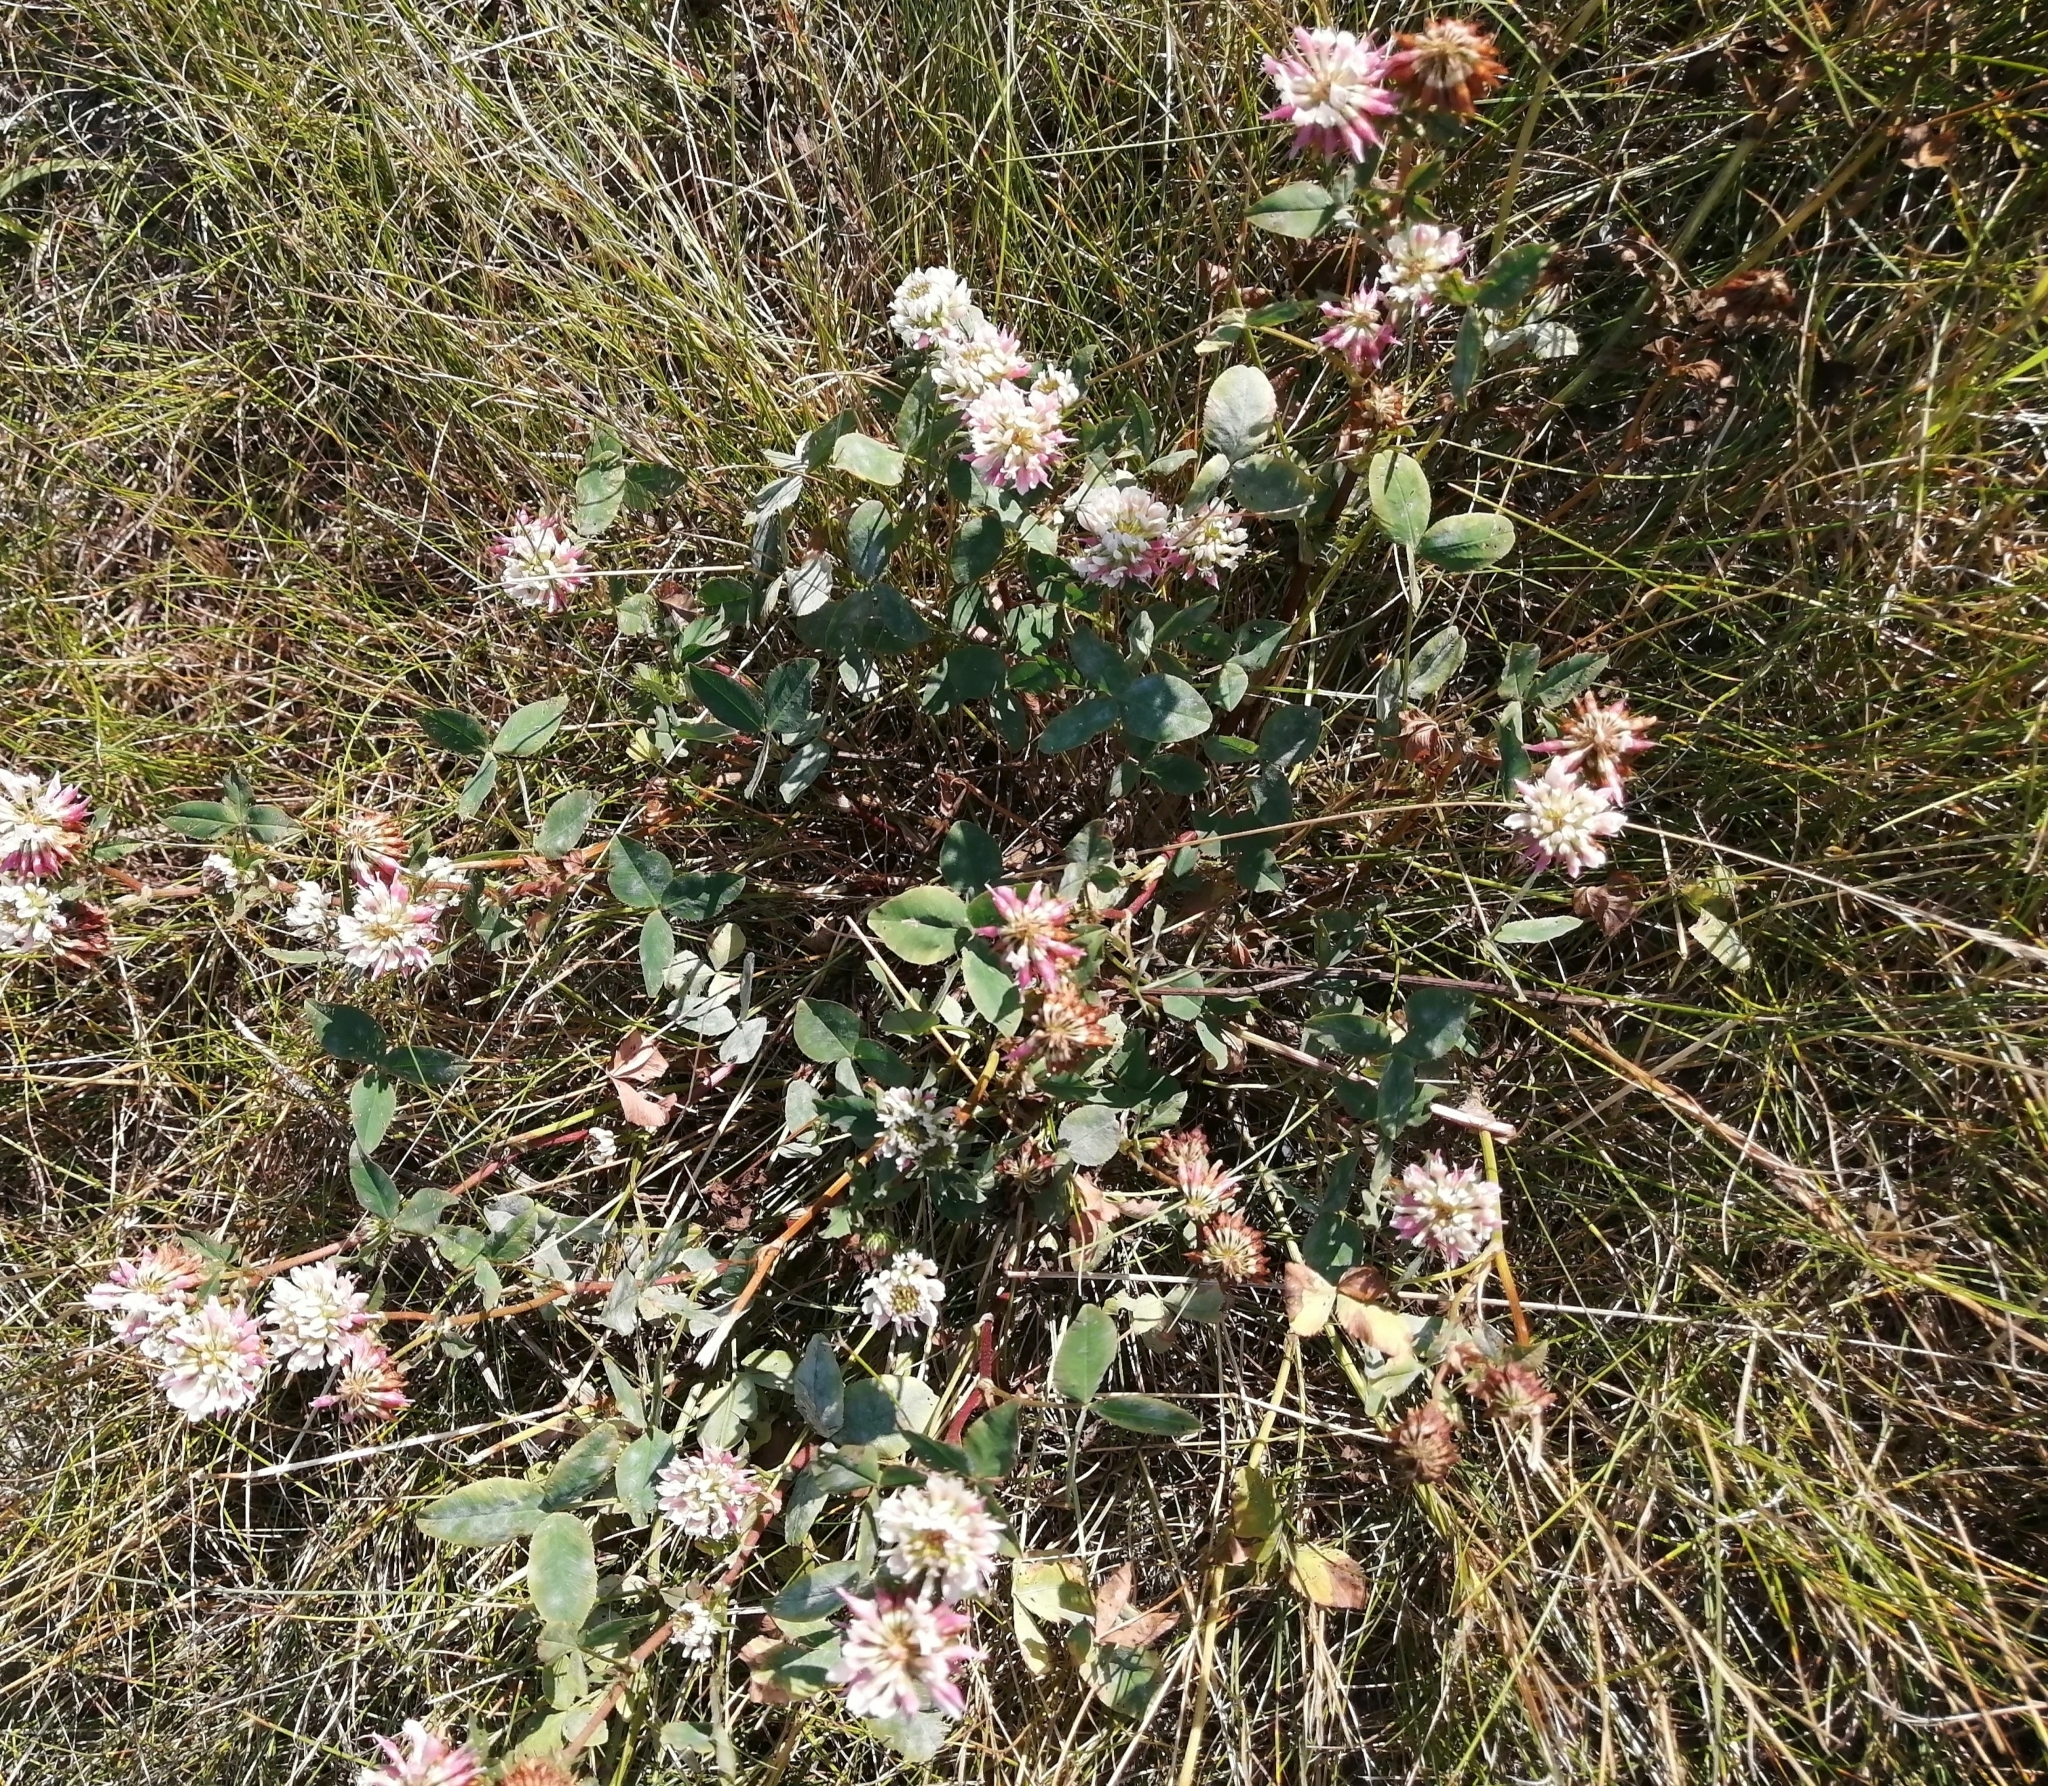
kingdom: Plantae
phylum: Tracheophyta
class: Magnoliopsida
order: Fabales
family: Fabaceae
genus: Trifolium
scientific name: Trifolium hybridum
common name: Alsike clover
